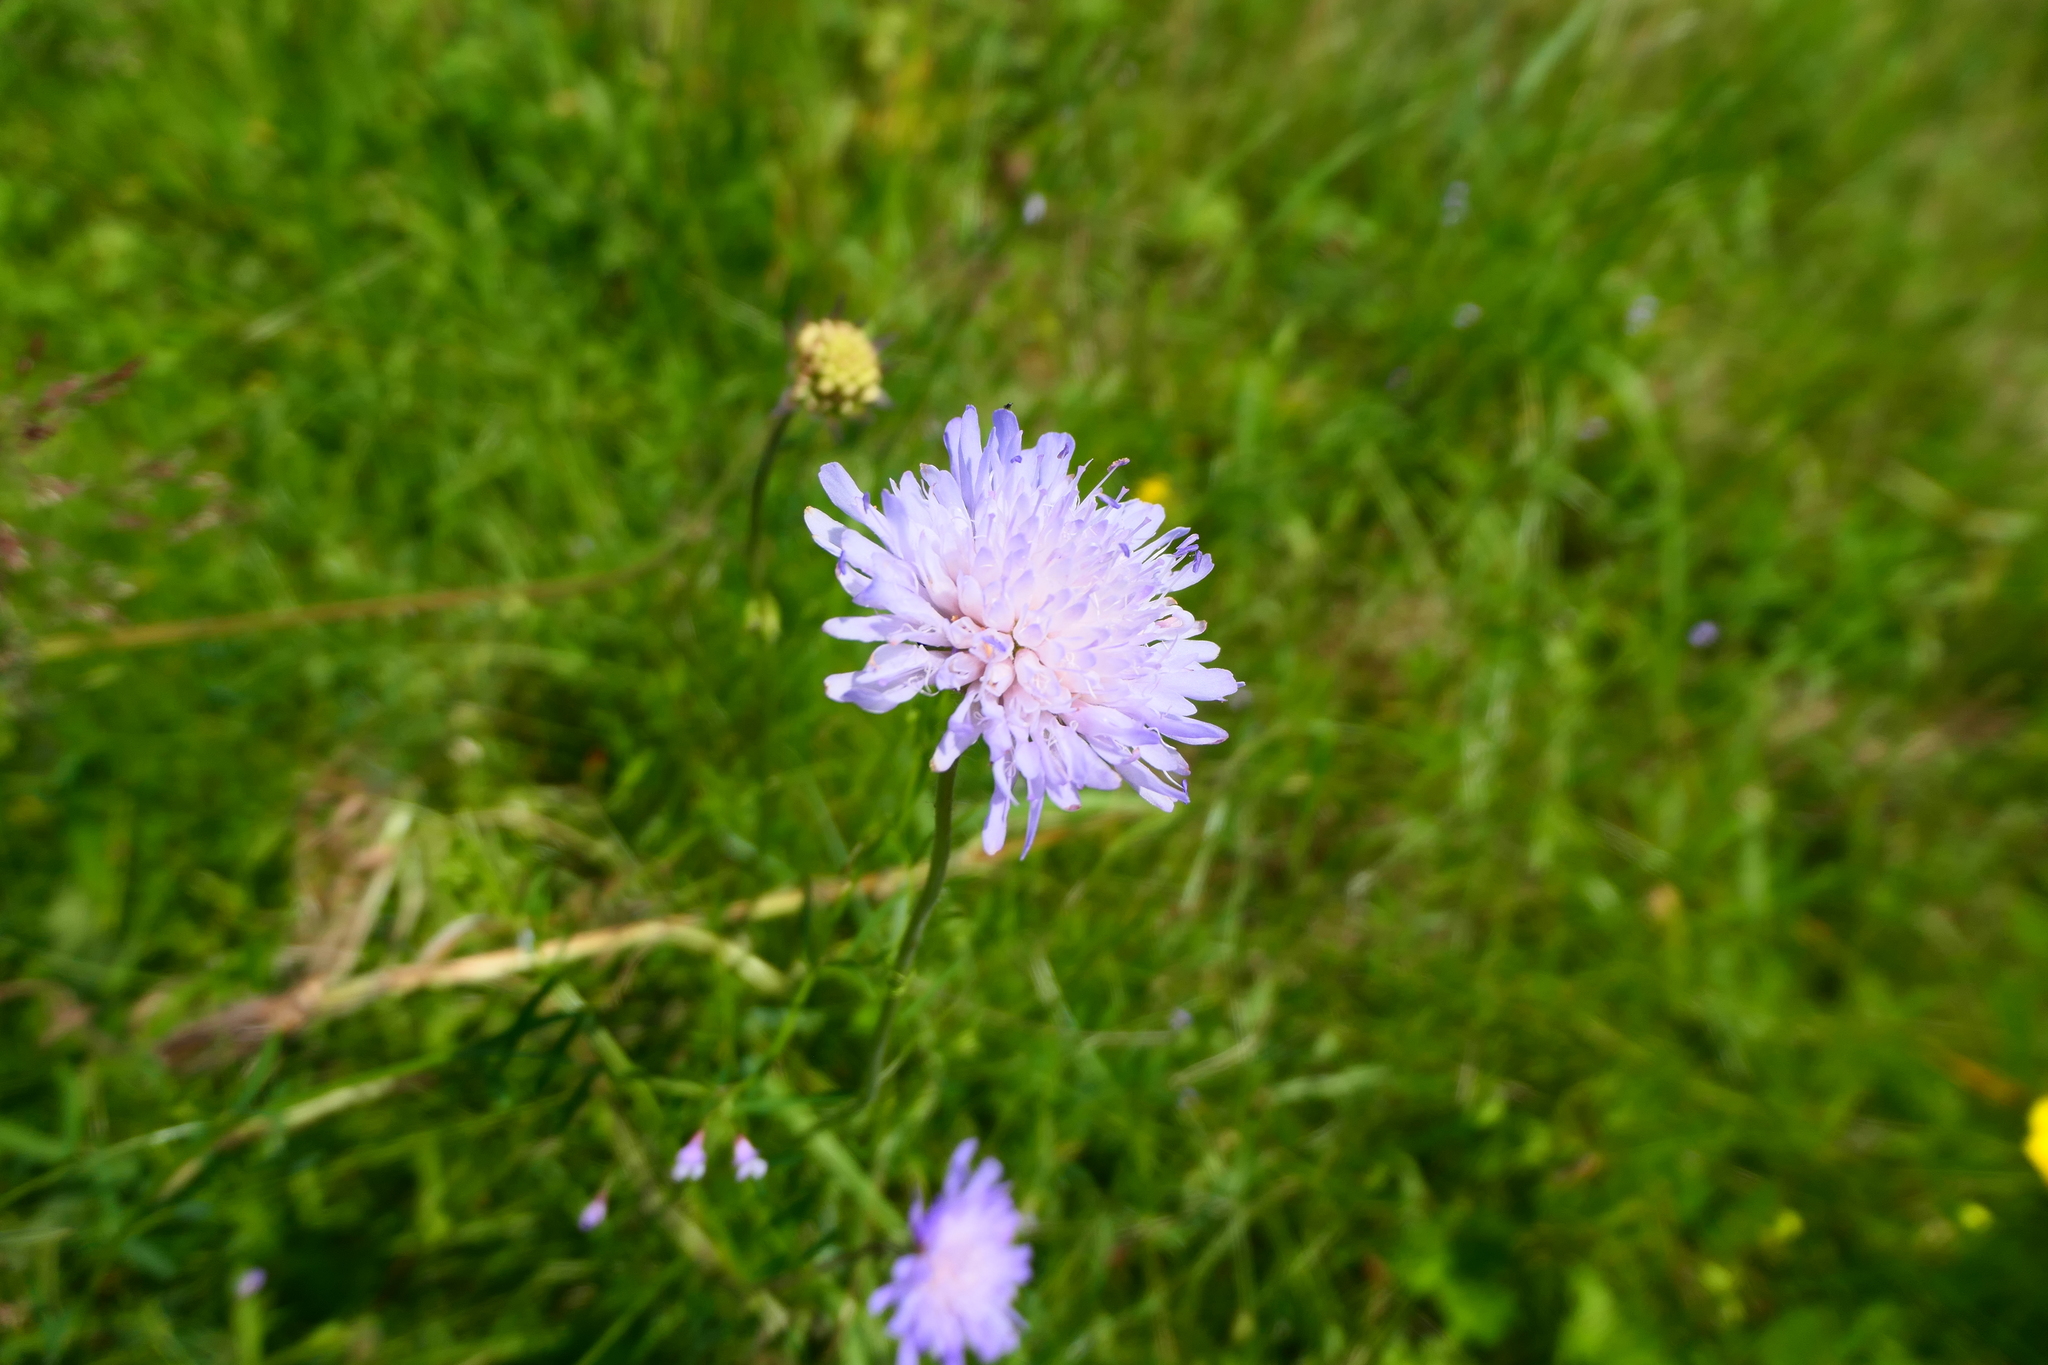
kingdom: Plantae
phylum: Tracheophyta
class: Magnoliopsida
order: Dipsacales
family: Caprifoliaceae
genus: Knautia
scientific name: Knautia arvensis
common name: Field scabiosa
